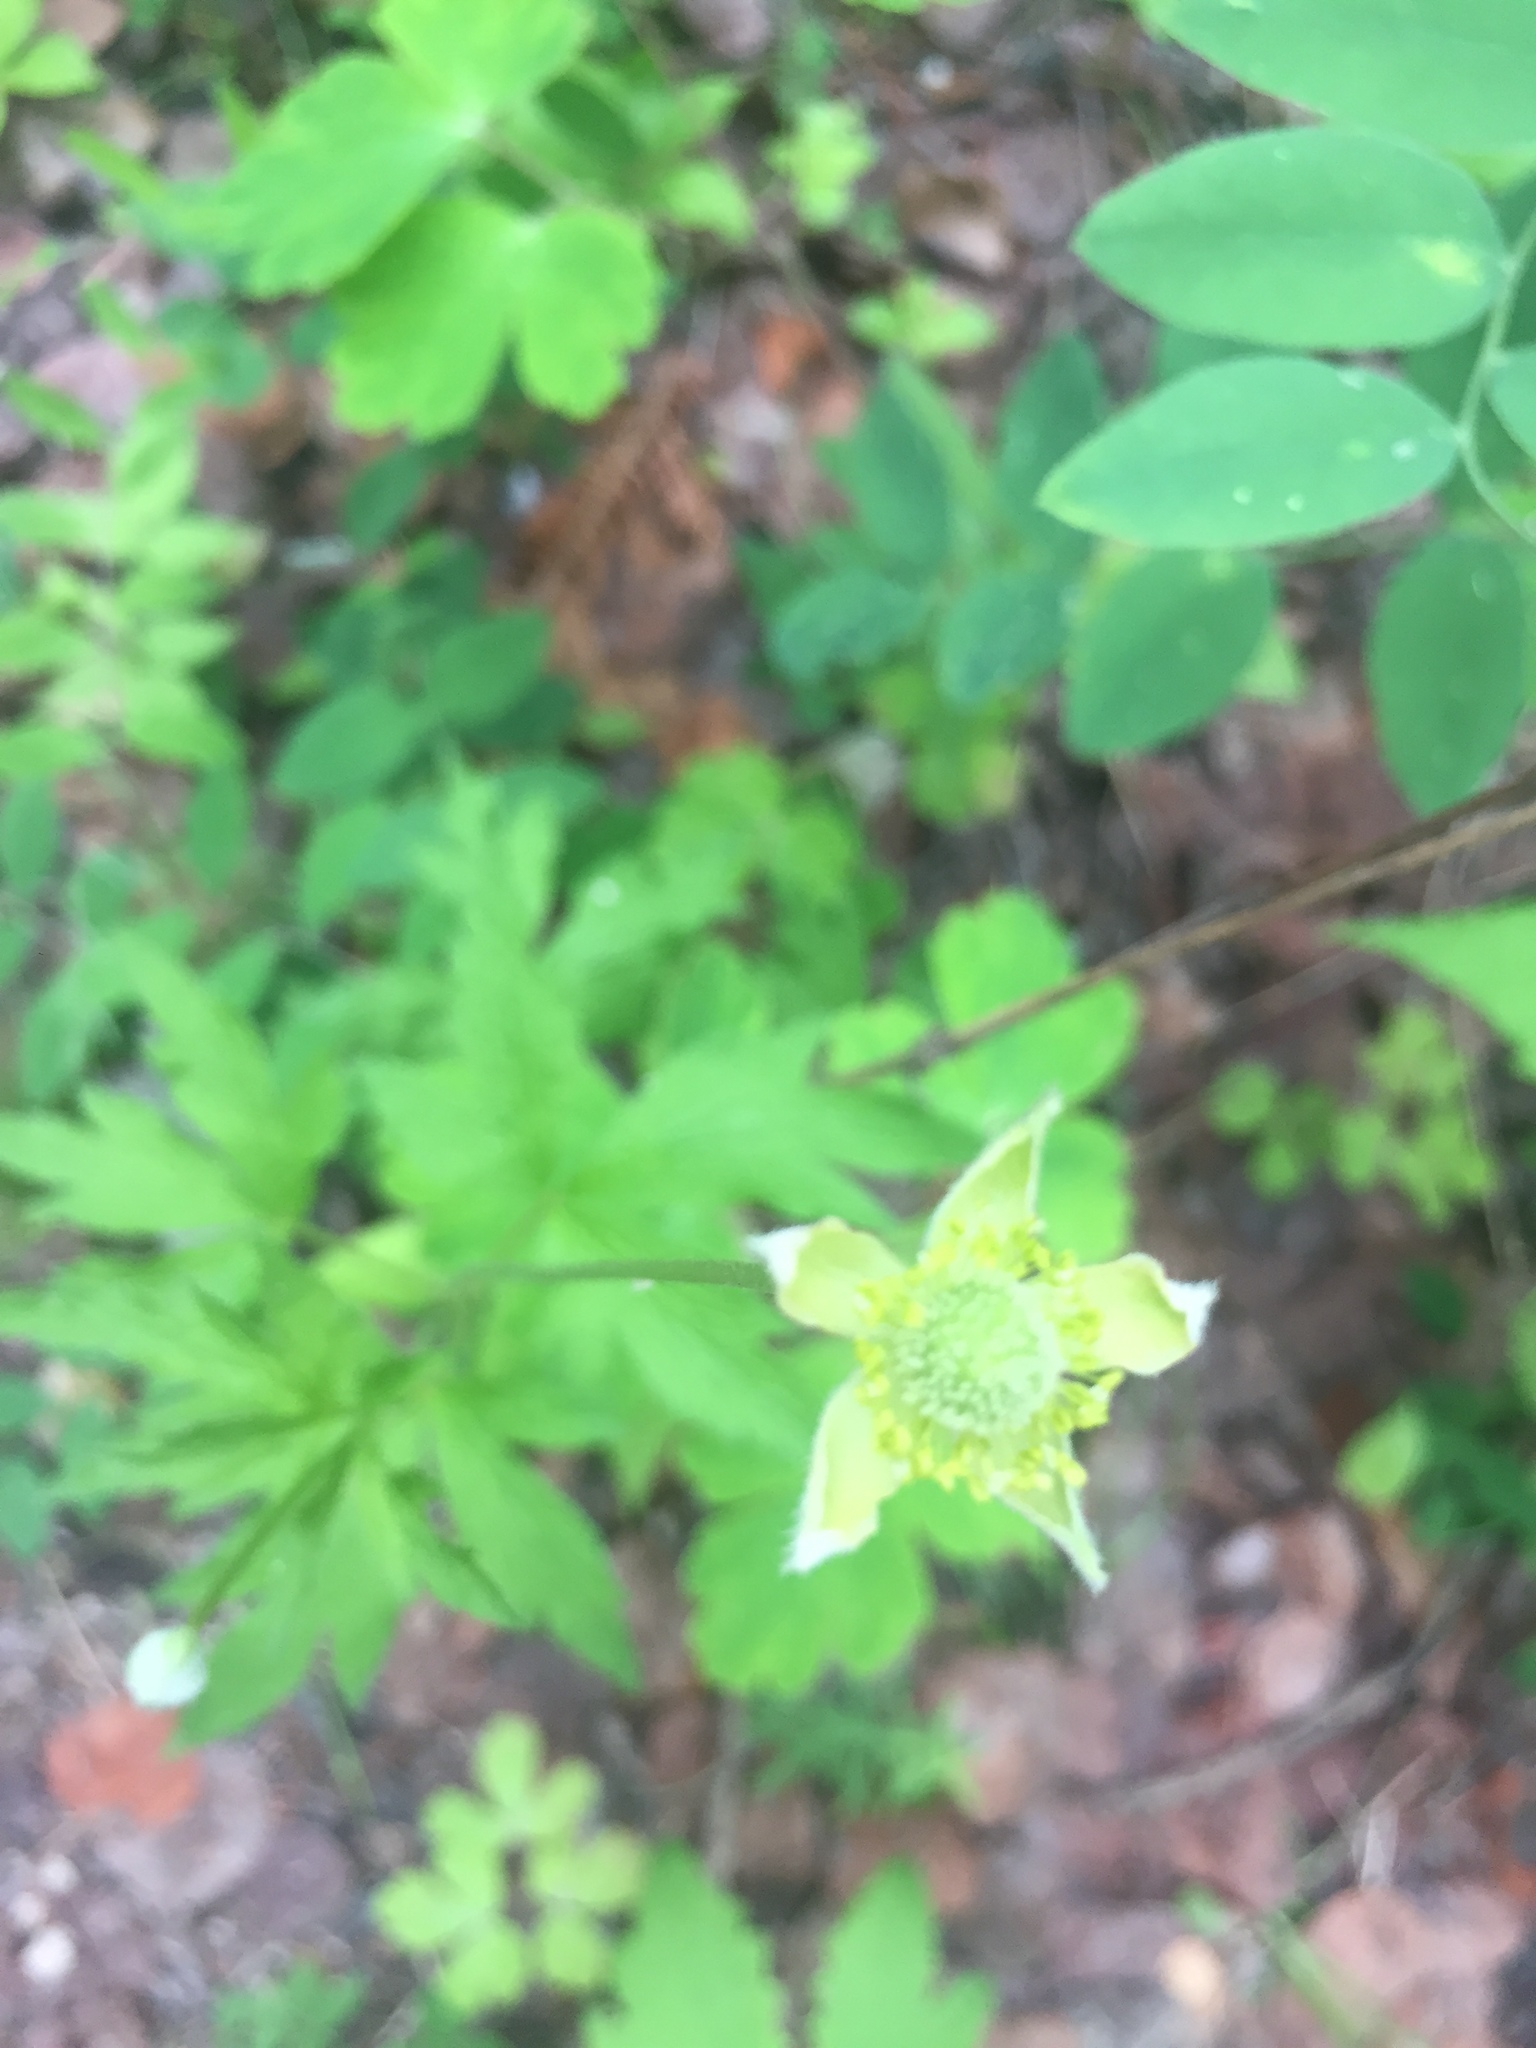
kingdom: Plantae
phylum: Tracheophyta
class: Magnoliopsida
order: Ranunculales
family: Ranunculaceae
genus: Anemone
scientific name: Anemone virginiana
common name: Tall anemone
